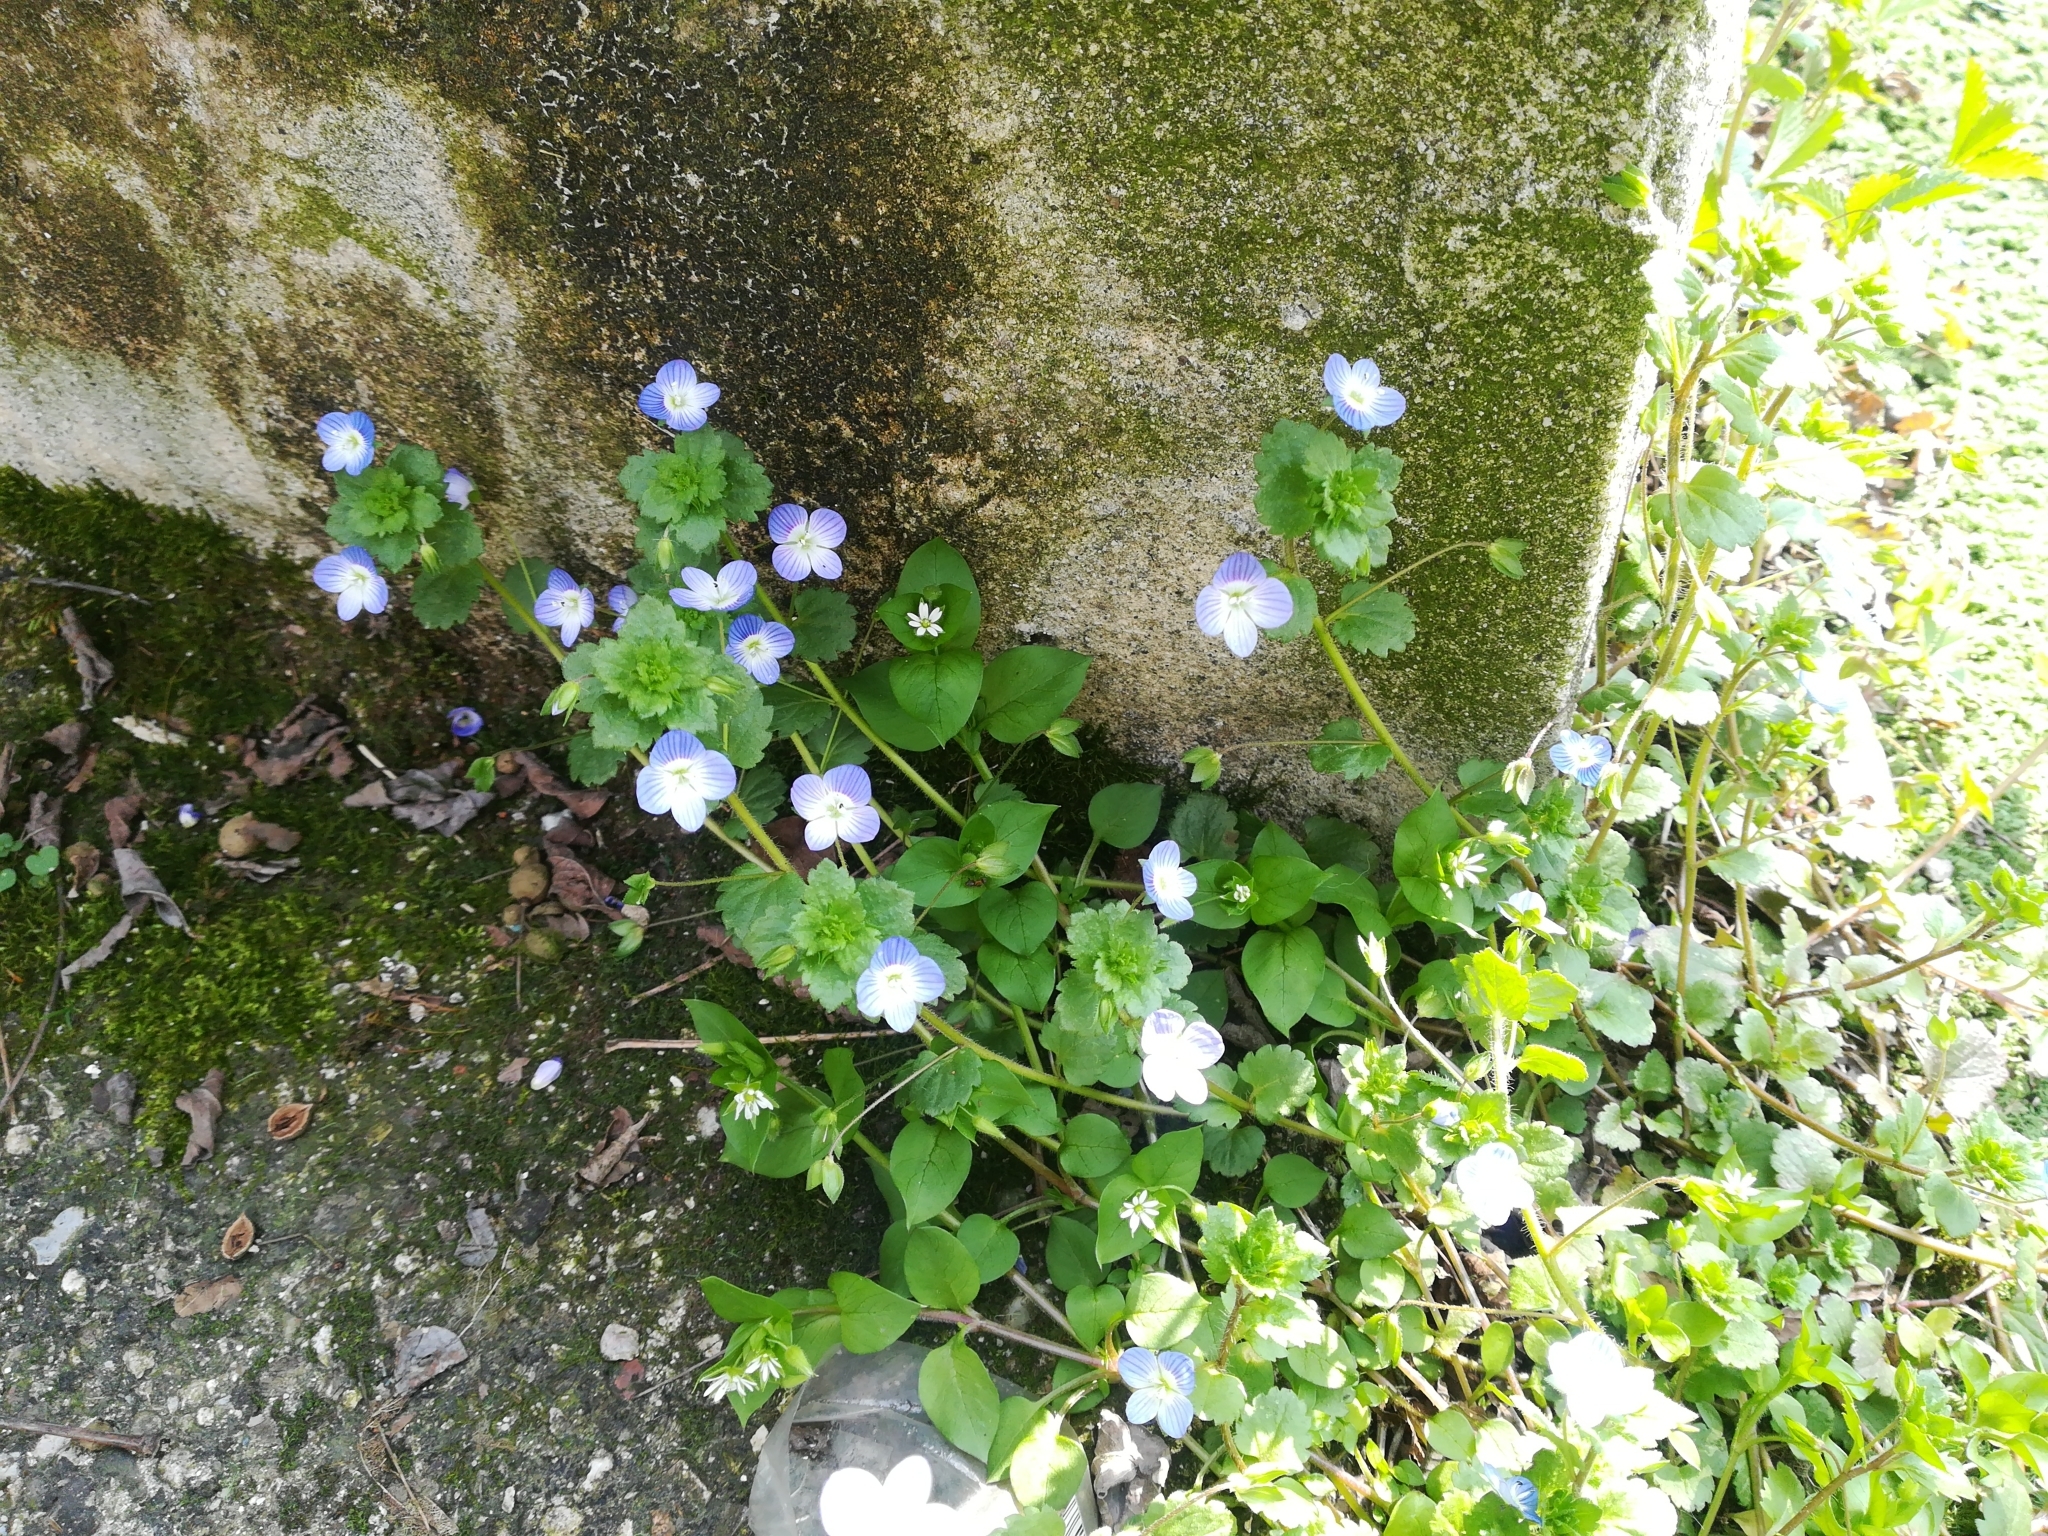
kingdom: Plantae
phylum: Tracheophyta
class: Magnoliopsida
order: Lamiales
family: Plantaginaceae
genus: Veronica
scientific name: Veronica persica
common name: Common field-speedwell
